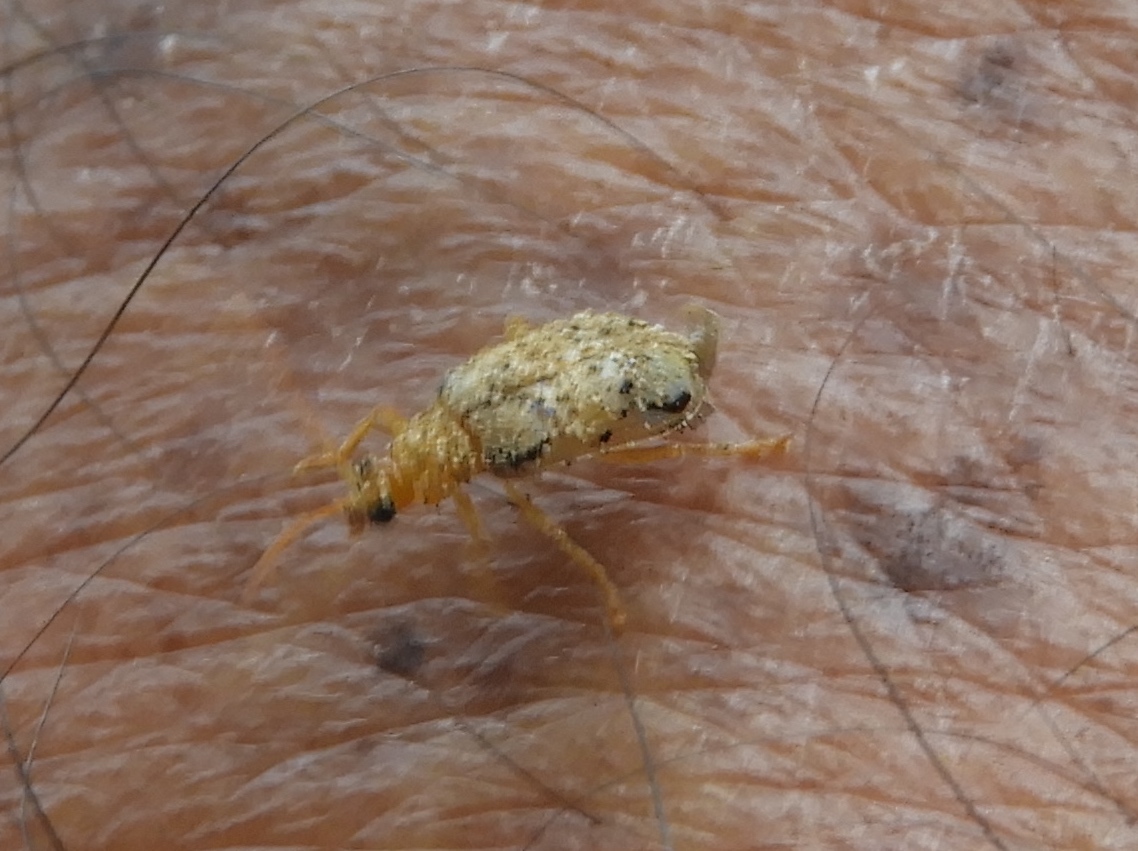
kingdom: Animalia
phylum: Arthropoda
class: Insecta
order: Coleoptera
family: Chrysomelidae
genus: Diabrotica
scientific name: Diabrotica
